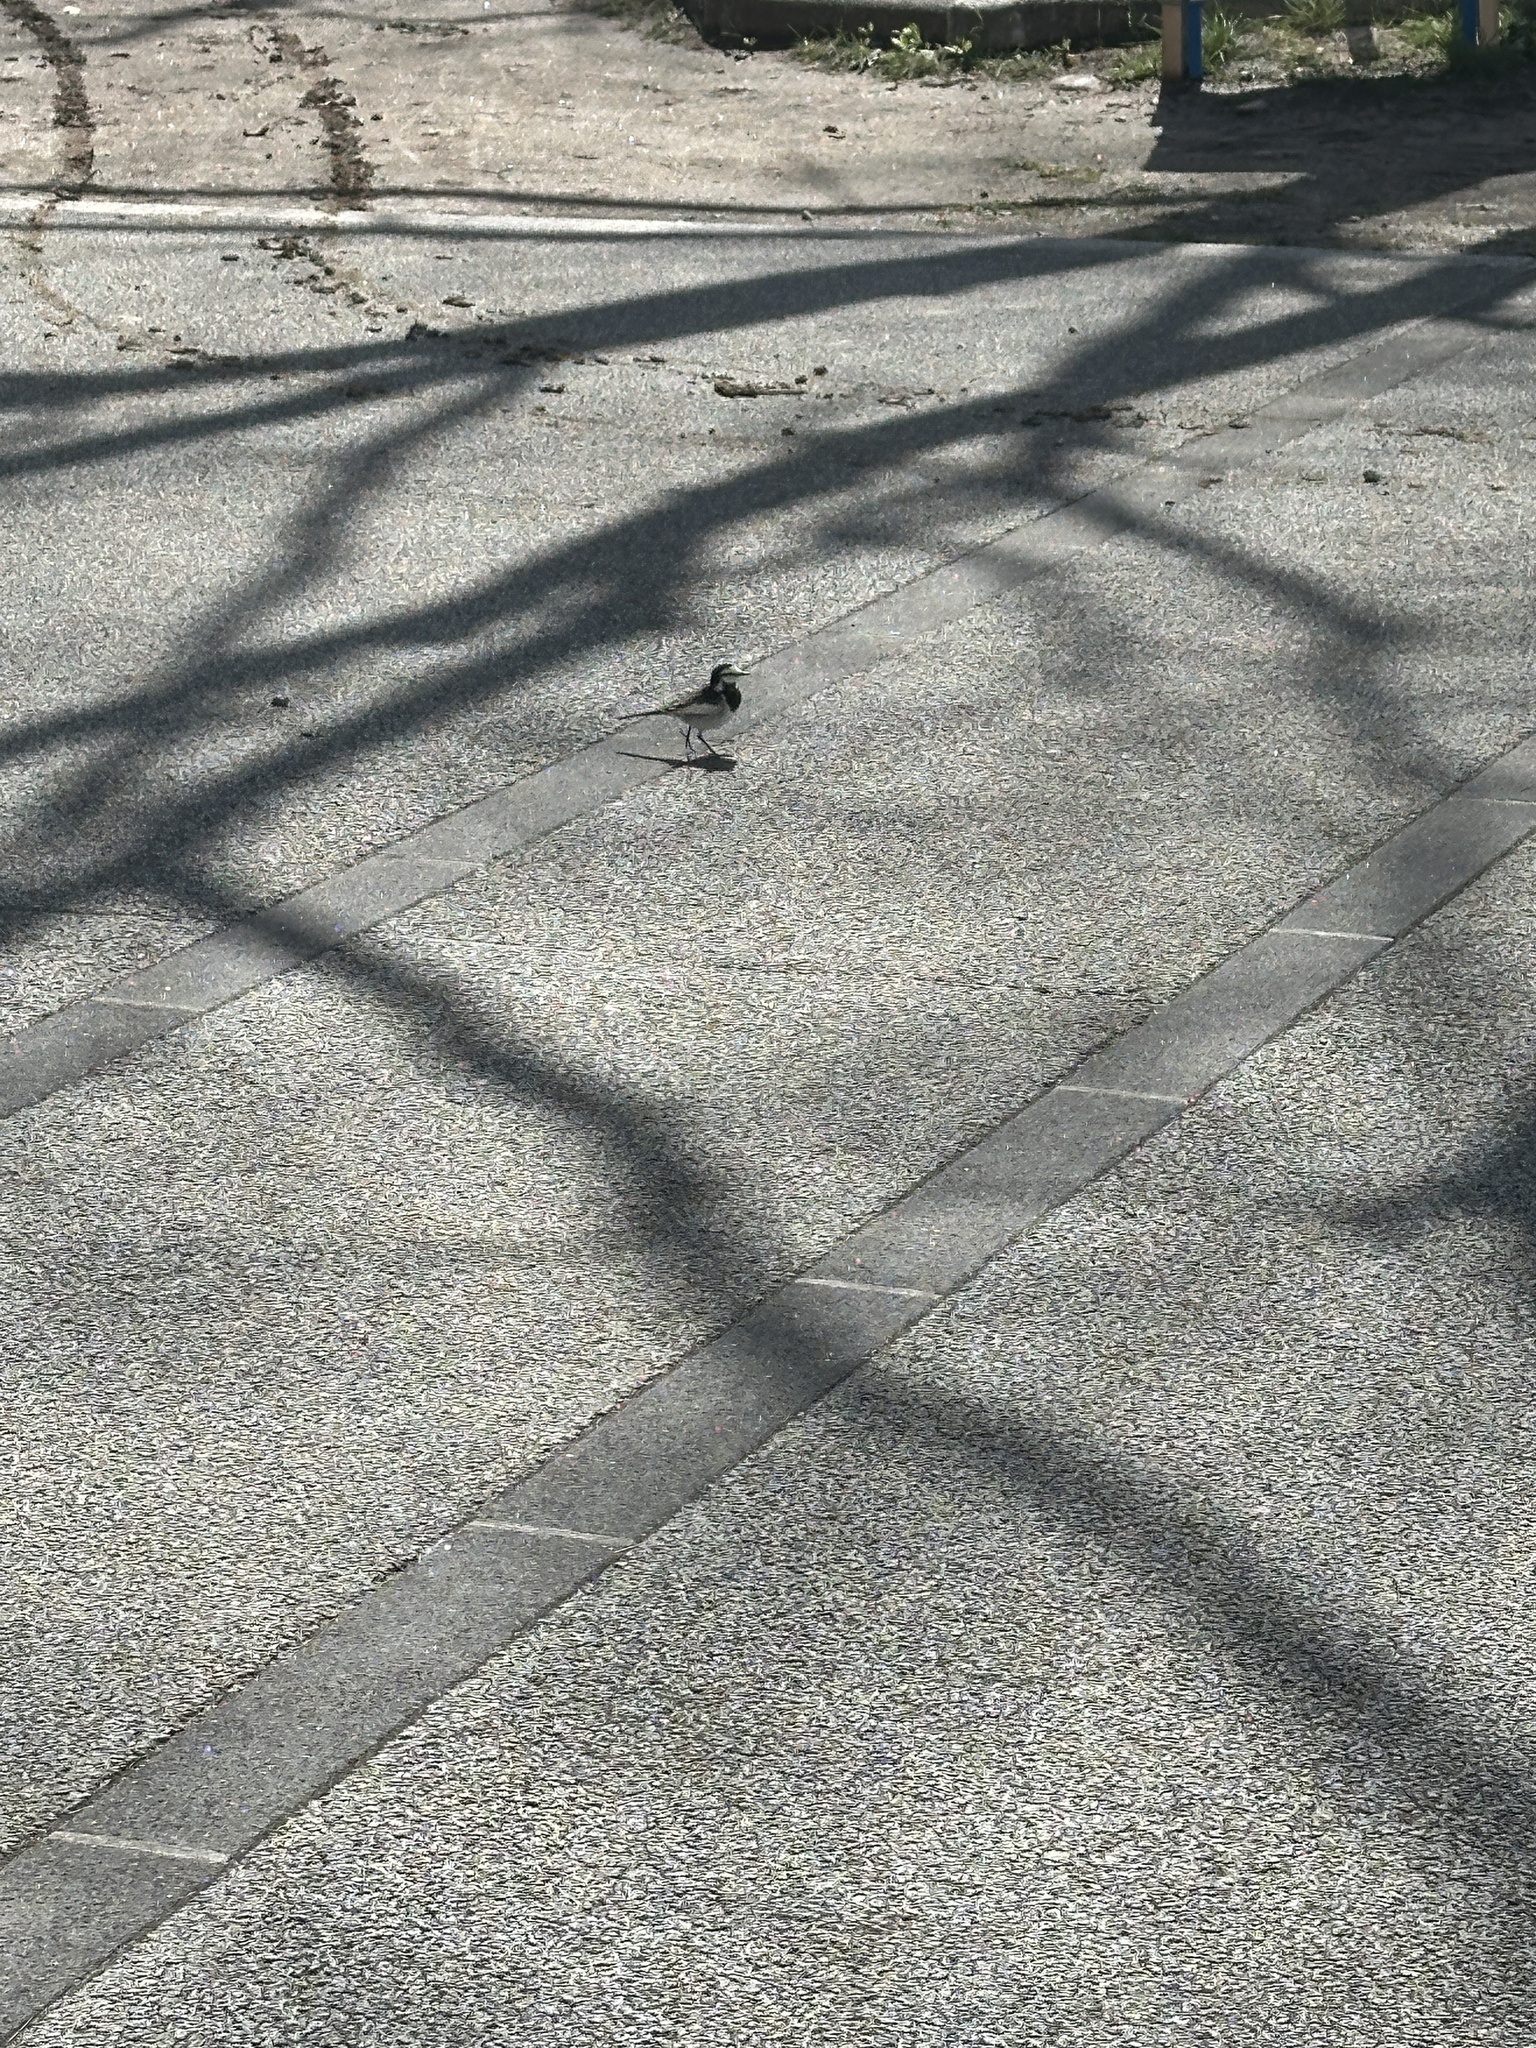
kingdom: Animalia
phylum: Chordata
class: Aves
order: Passeriformes
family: Motacillidae
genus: Motacilla
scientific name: Motacilla alba
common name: White wagtail
